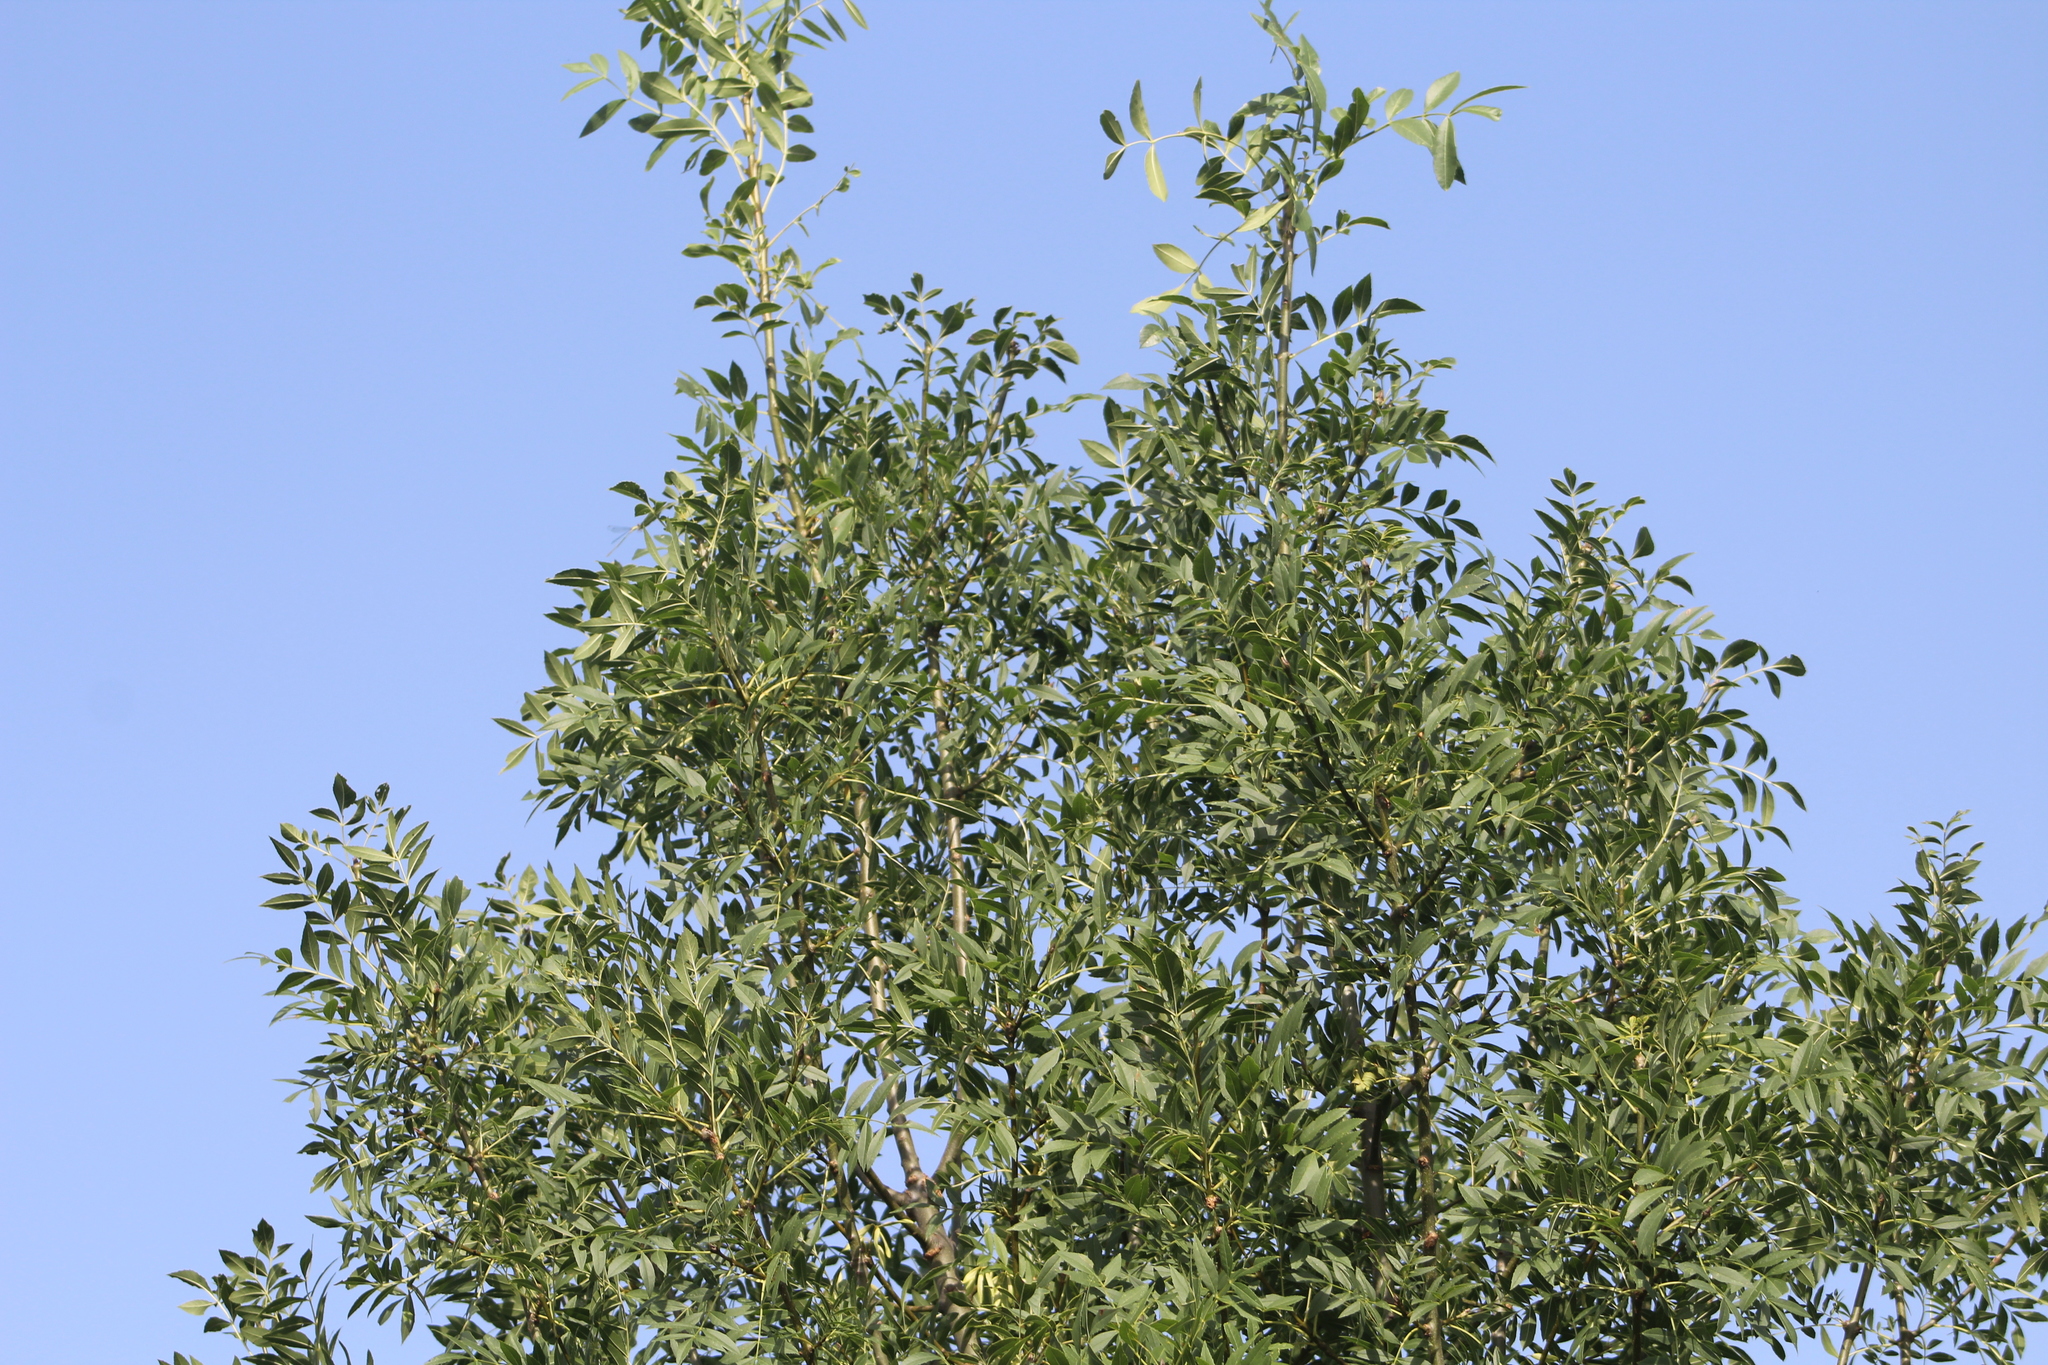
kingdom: Plantae
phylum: Tracheophyta
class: Magnoliopsida
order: Lamiales
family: Oleaceae
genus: Fraxinus
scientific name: Fraxinus angustifolia
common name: Narrow-leafed ash
